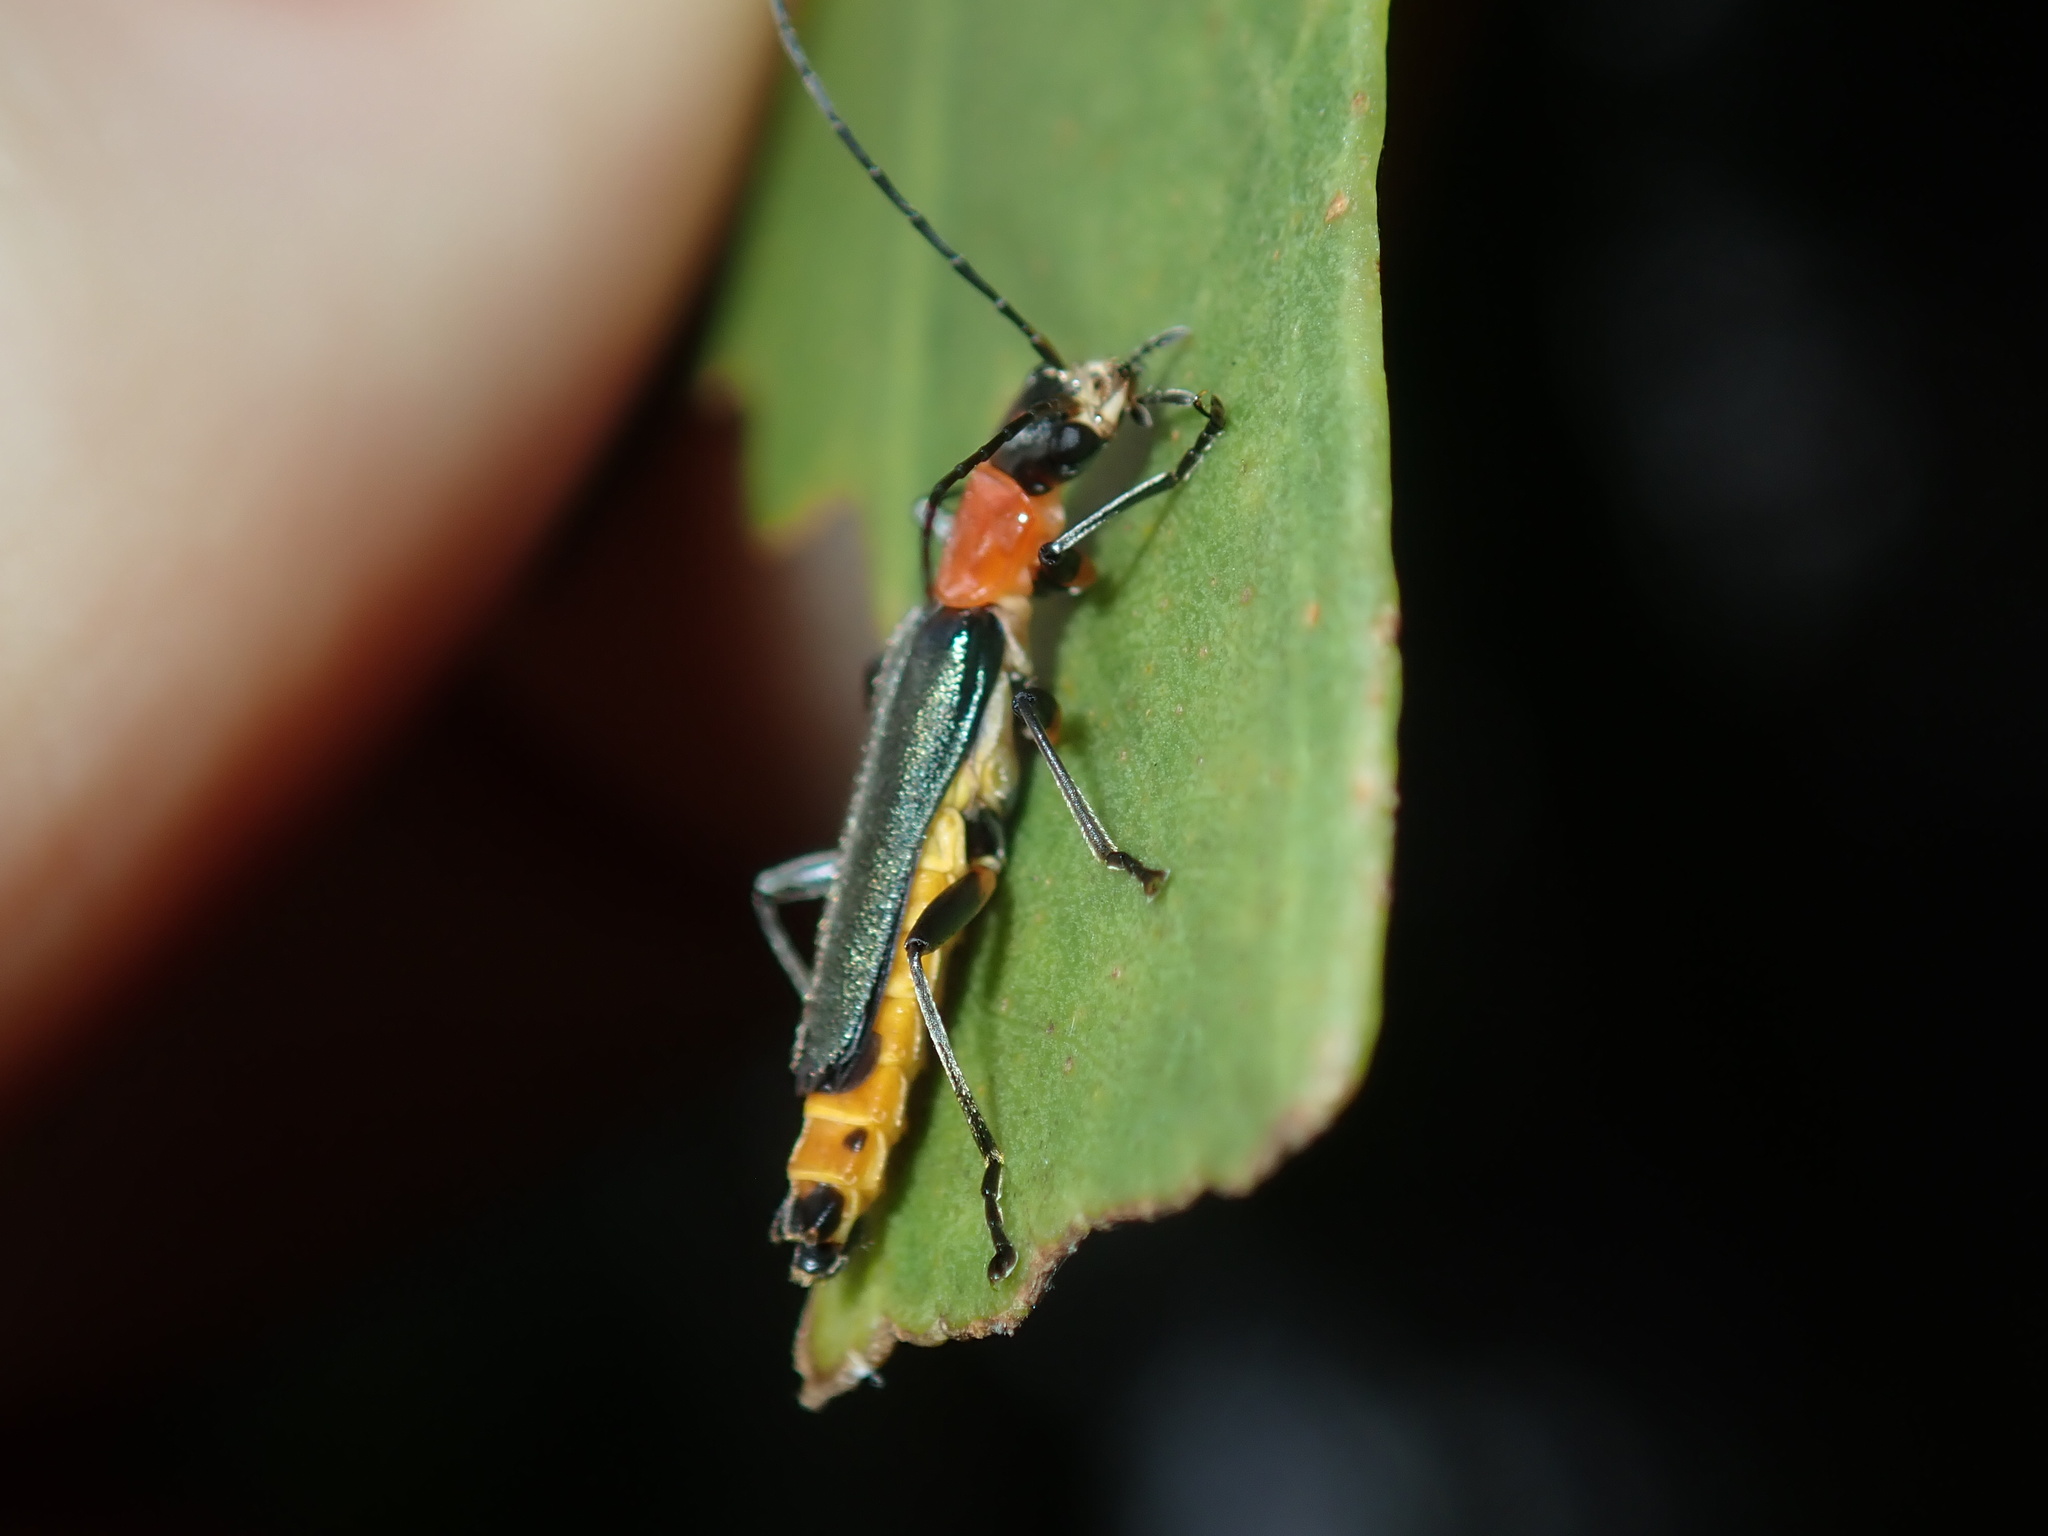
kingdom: Animalia
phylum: Arthropoda
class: Insecta
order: Coleoptera
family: Cantharidae
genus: Chauliognathus
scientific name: Chauliognathus
